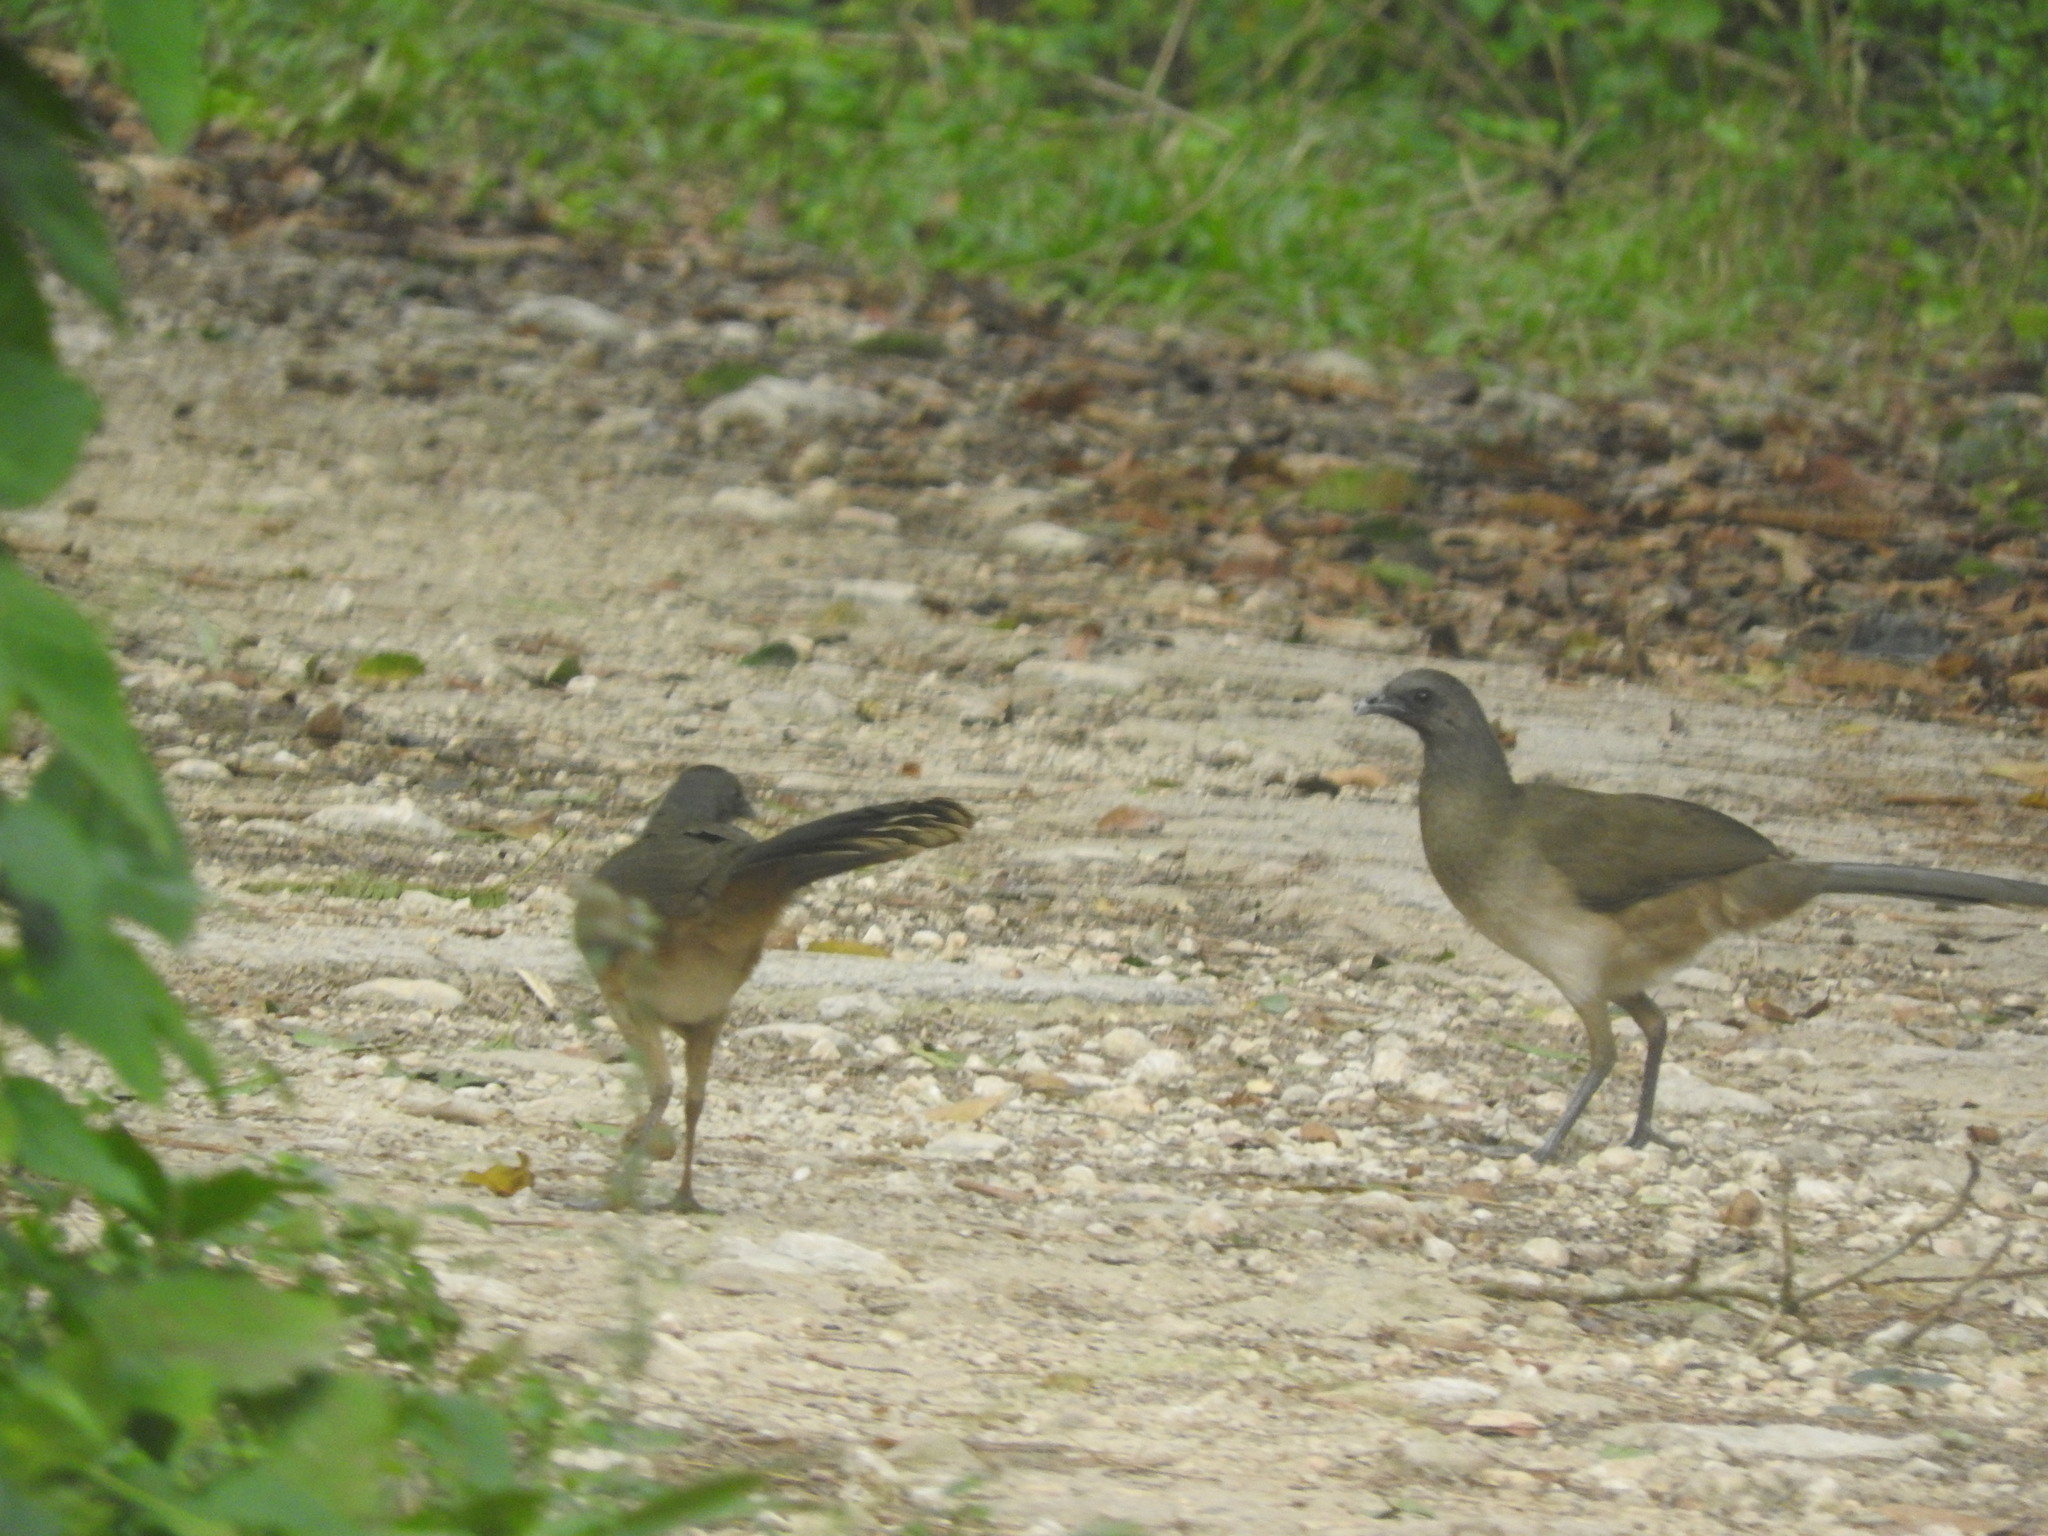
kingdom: Animalia
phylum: Chordata
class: Aves
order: Galliformes
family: Cracidae
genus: Ortalis
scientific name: Ortalis vetula
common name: Plain chachalaca
